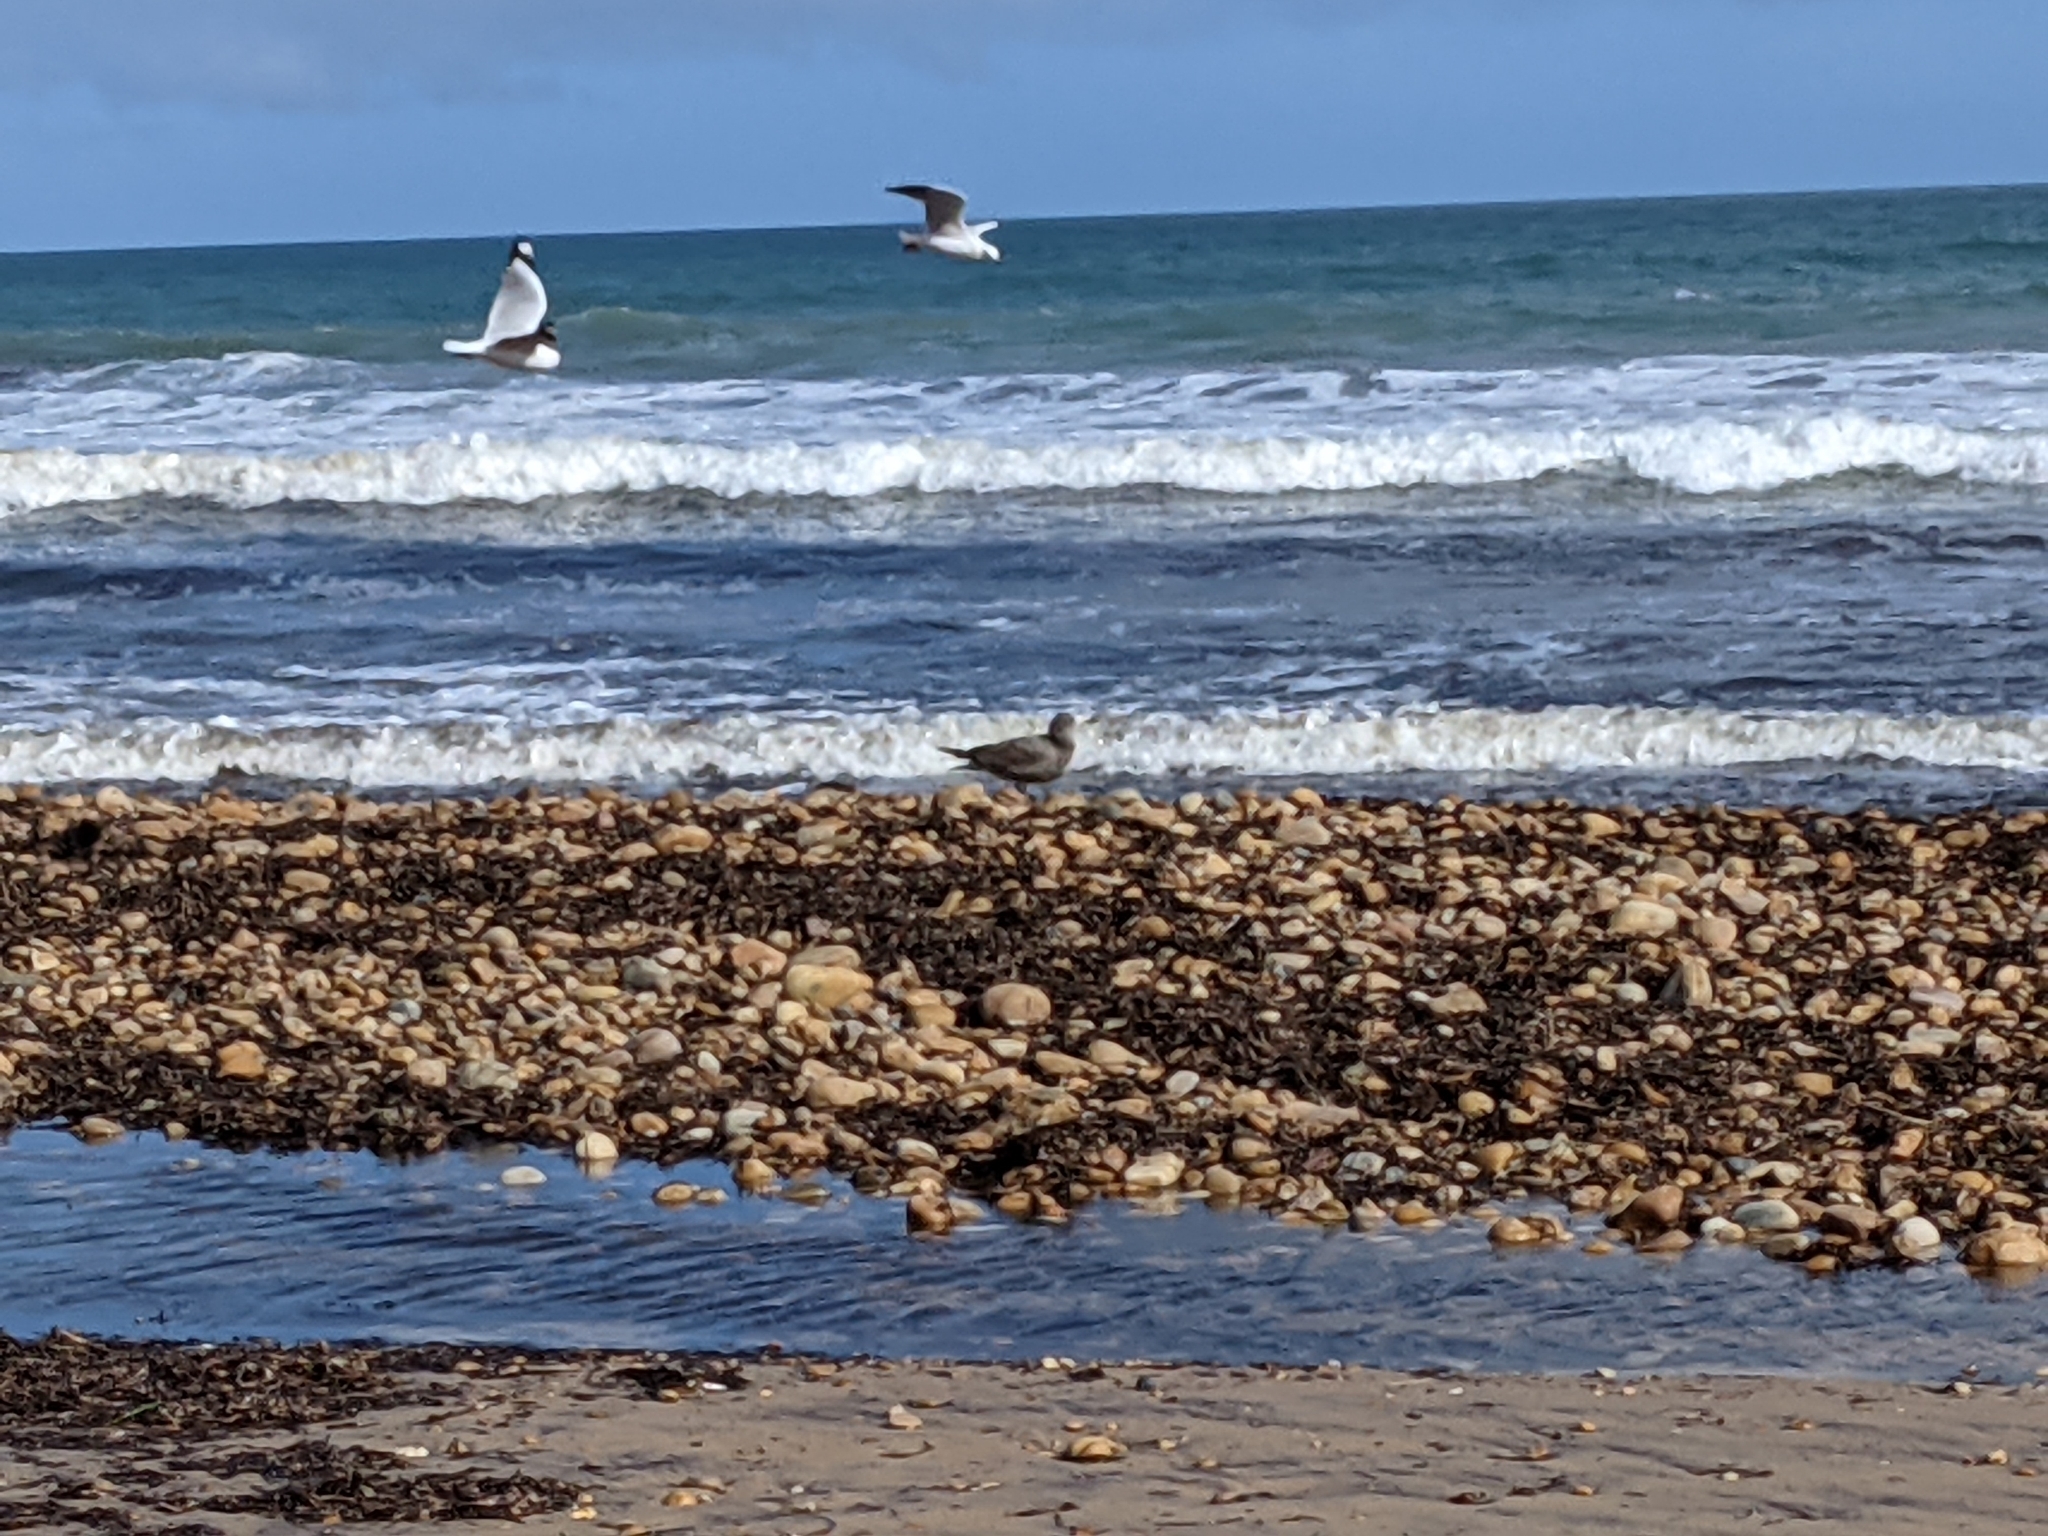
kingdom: Animalia
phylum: Chordata
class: Aves
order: Charadriiformes
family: Laridae
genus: Larus
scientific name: Larus pacificus
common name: Pacific gull
